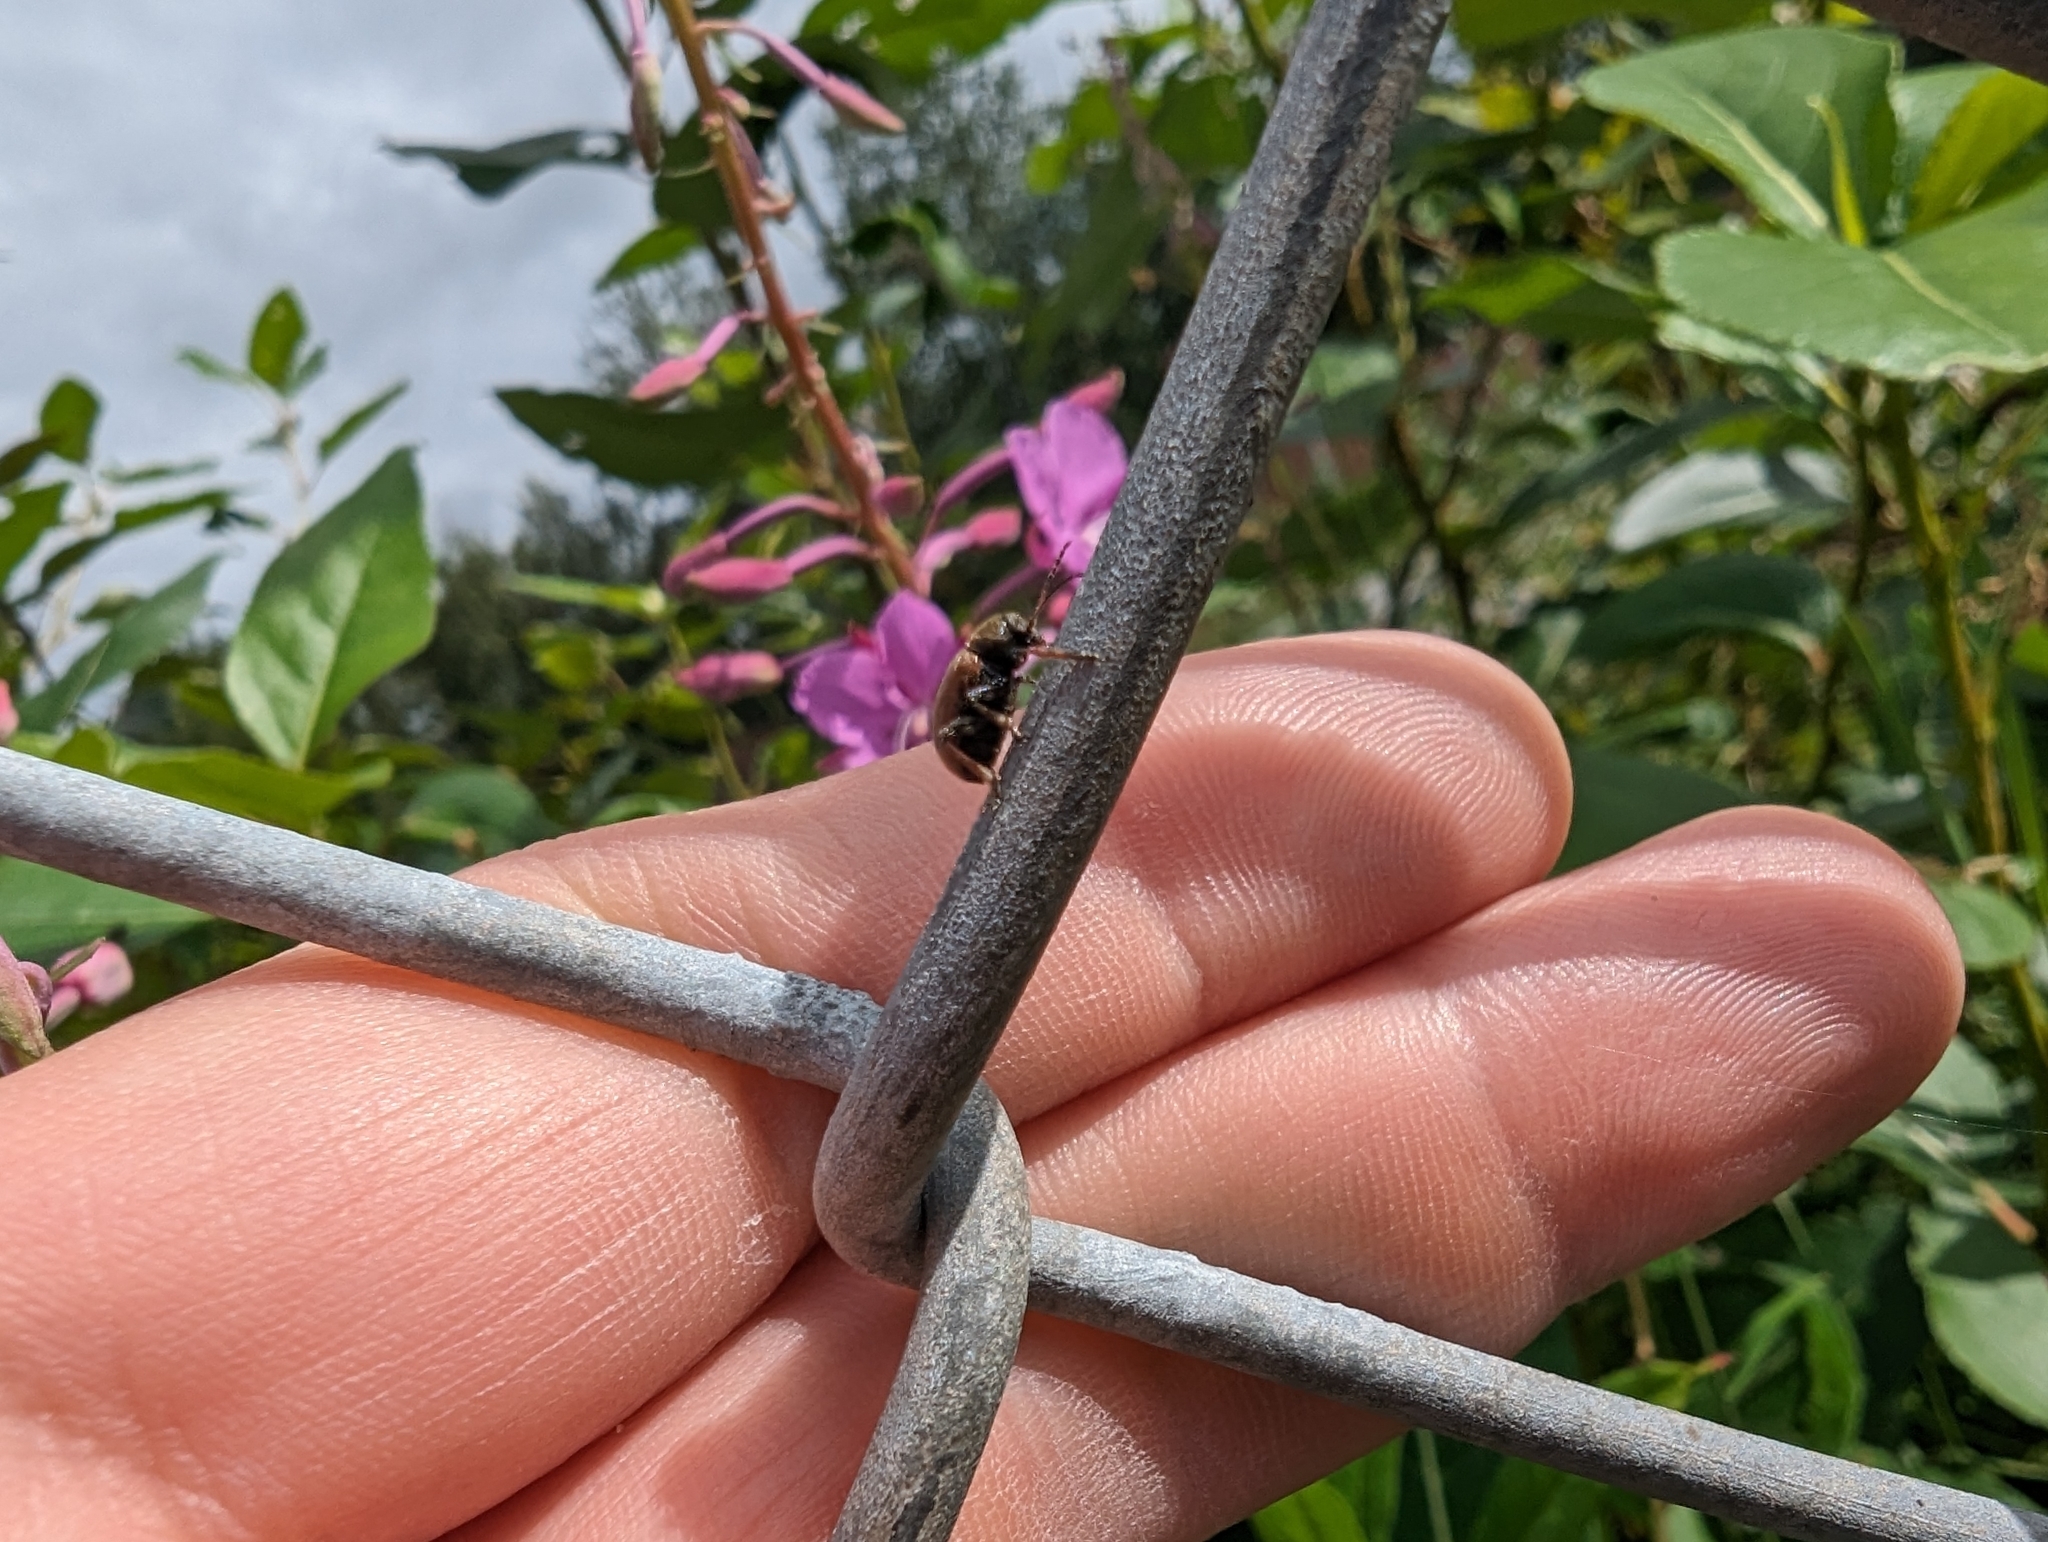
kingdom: Animalia
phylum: Arthropoda
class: Insecta
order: Coleoptera
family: Chrysomelidae
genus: Bromius
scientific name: Bromius obscurus
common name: Western grape rootworm
